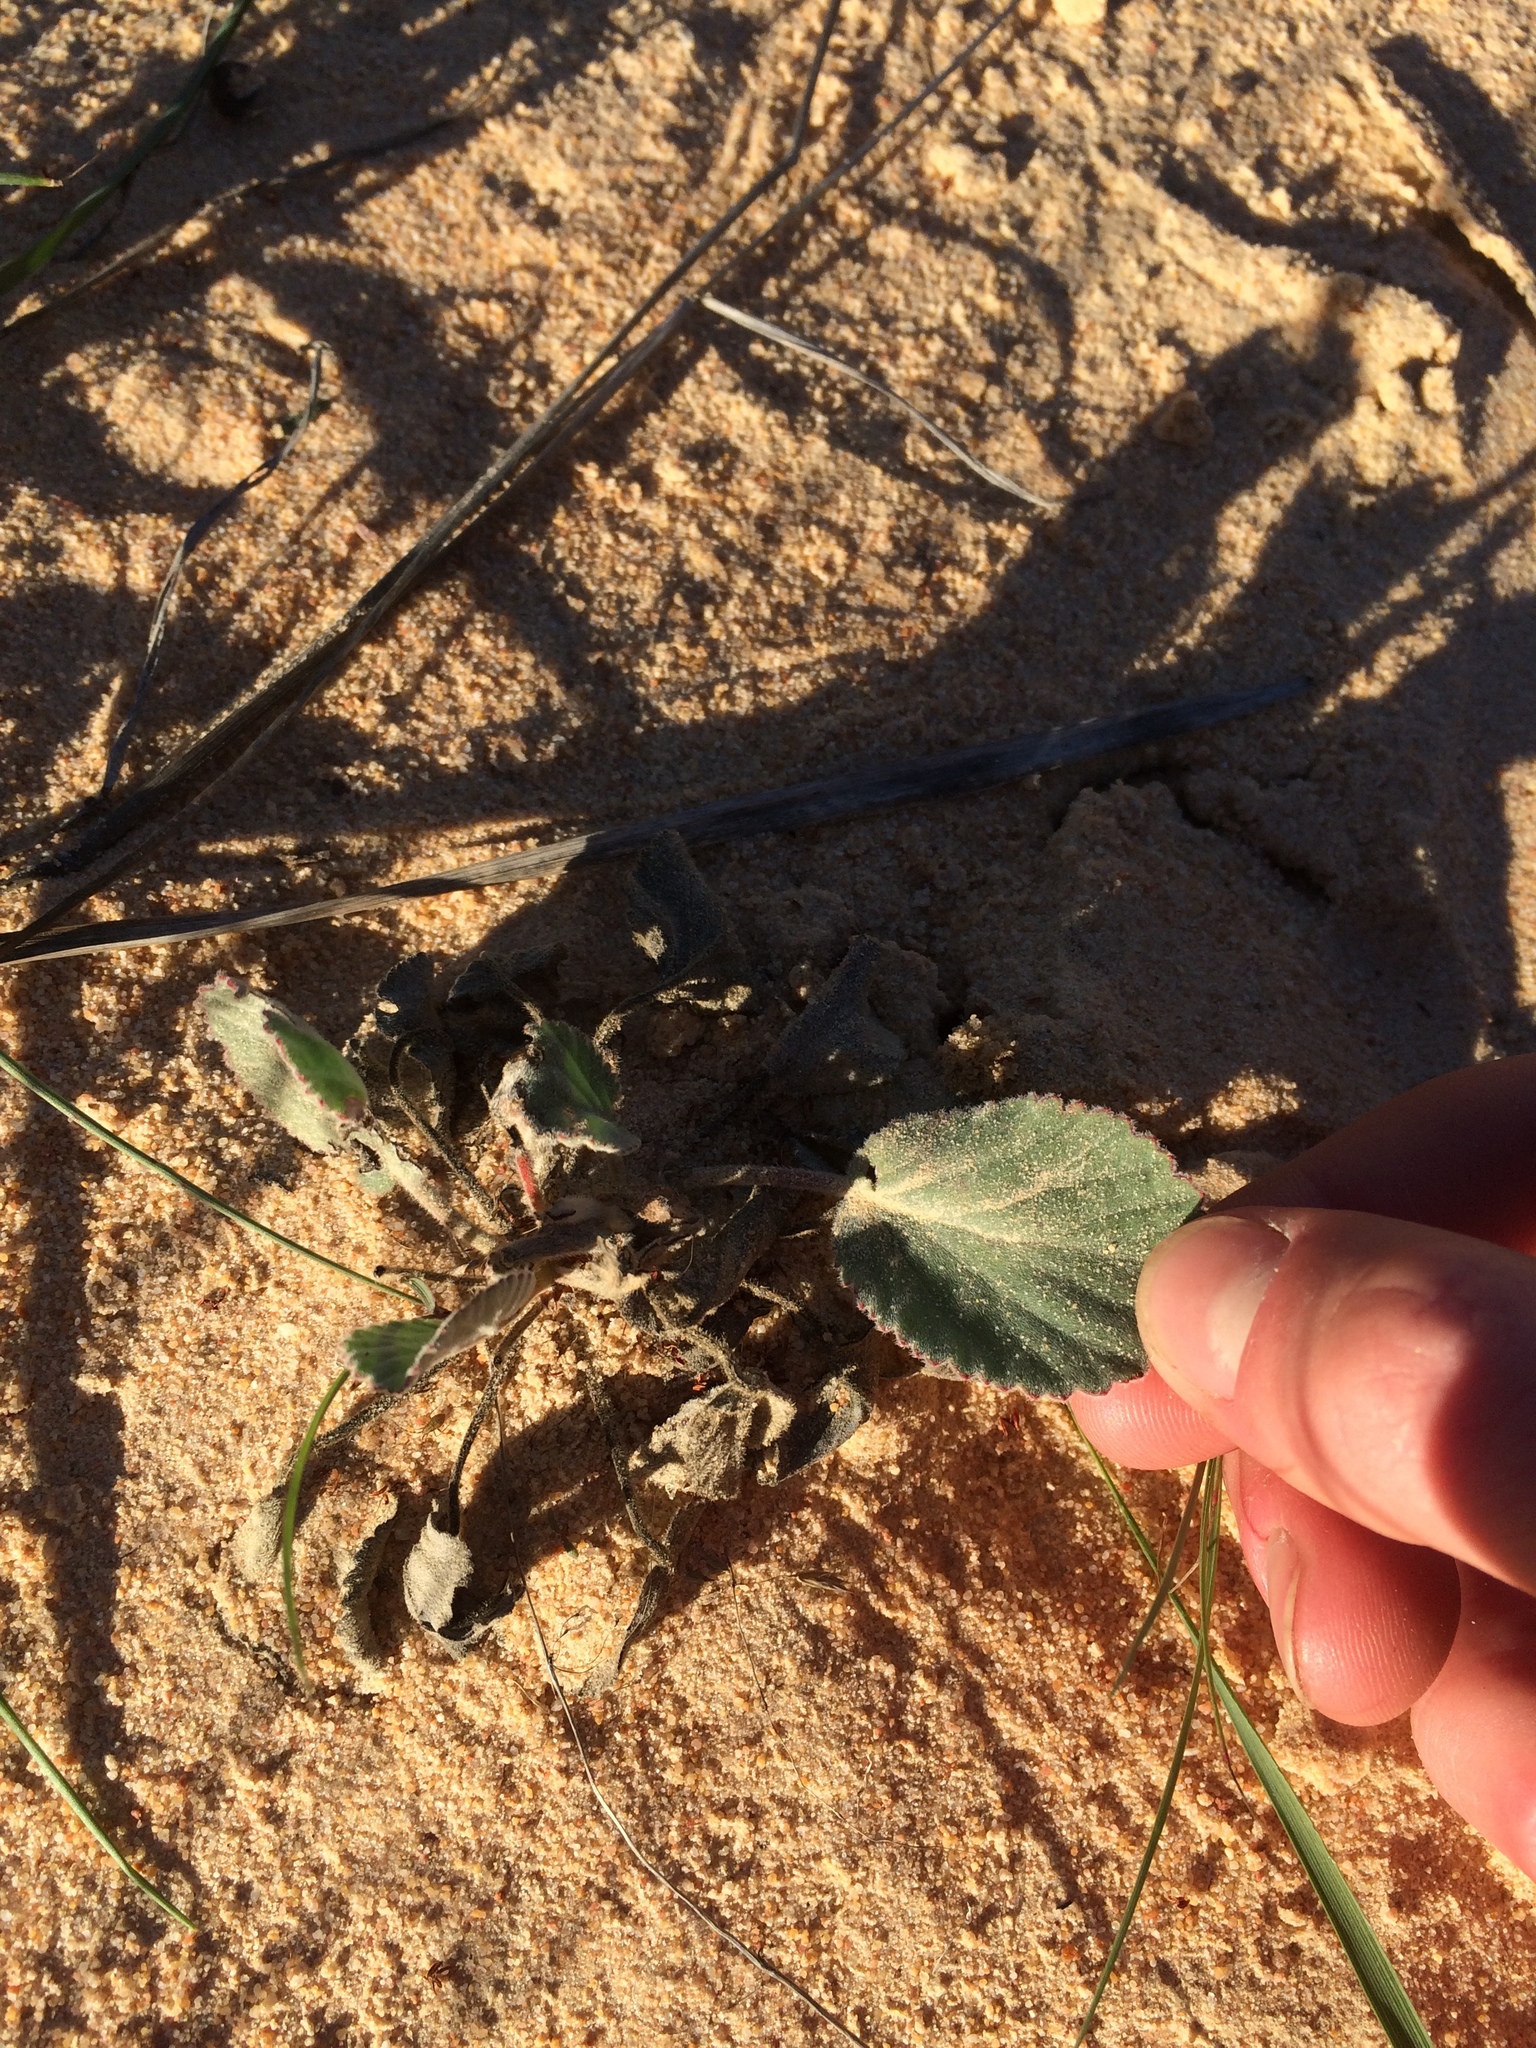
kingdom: Plantae
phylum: Tracheophyta
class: Magnoliopsida
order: Geraniales
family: Geraniaceae
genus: Pelargonium
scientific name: Pelargonium ovale
